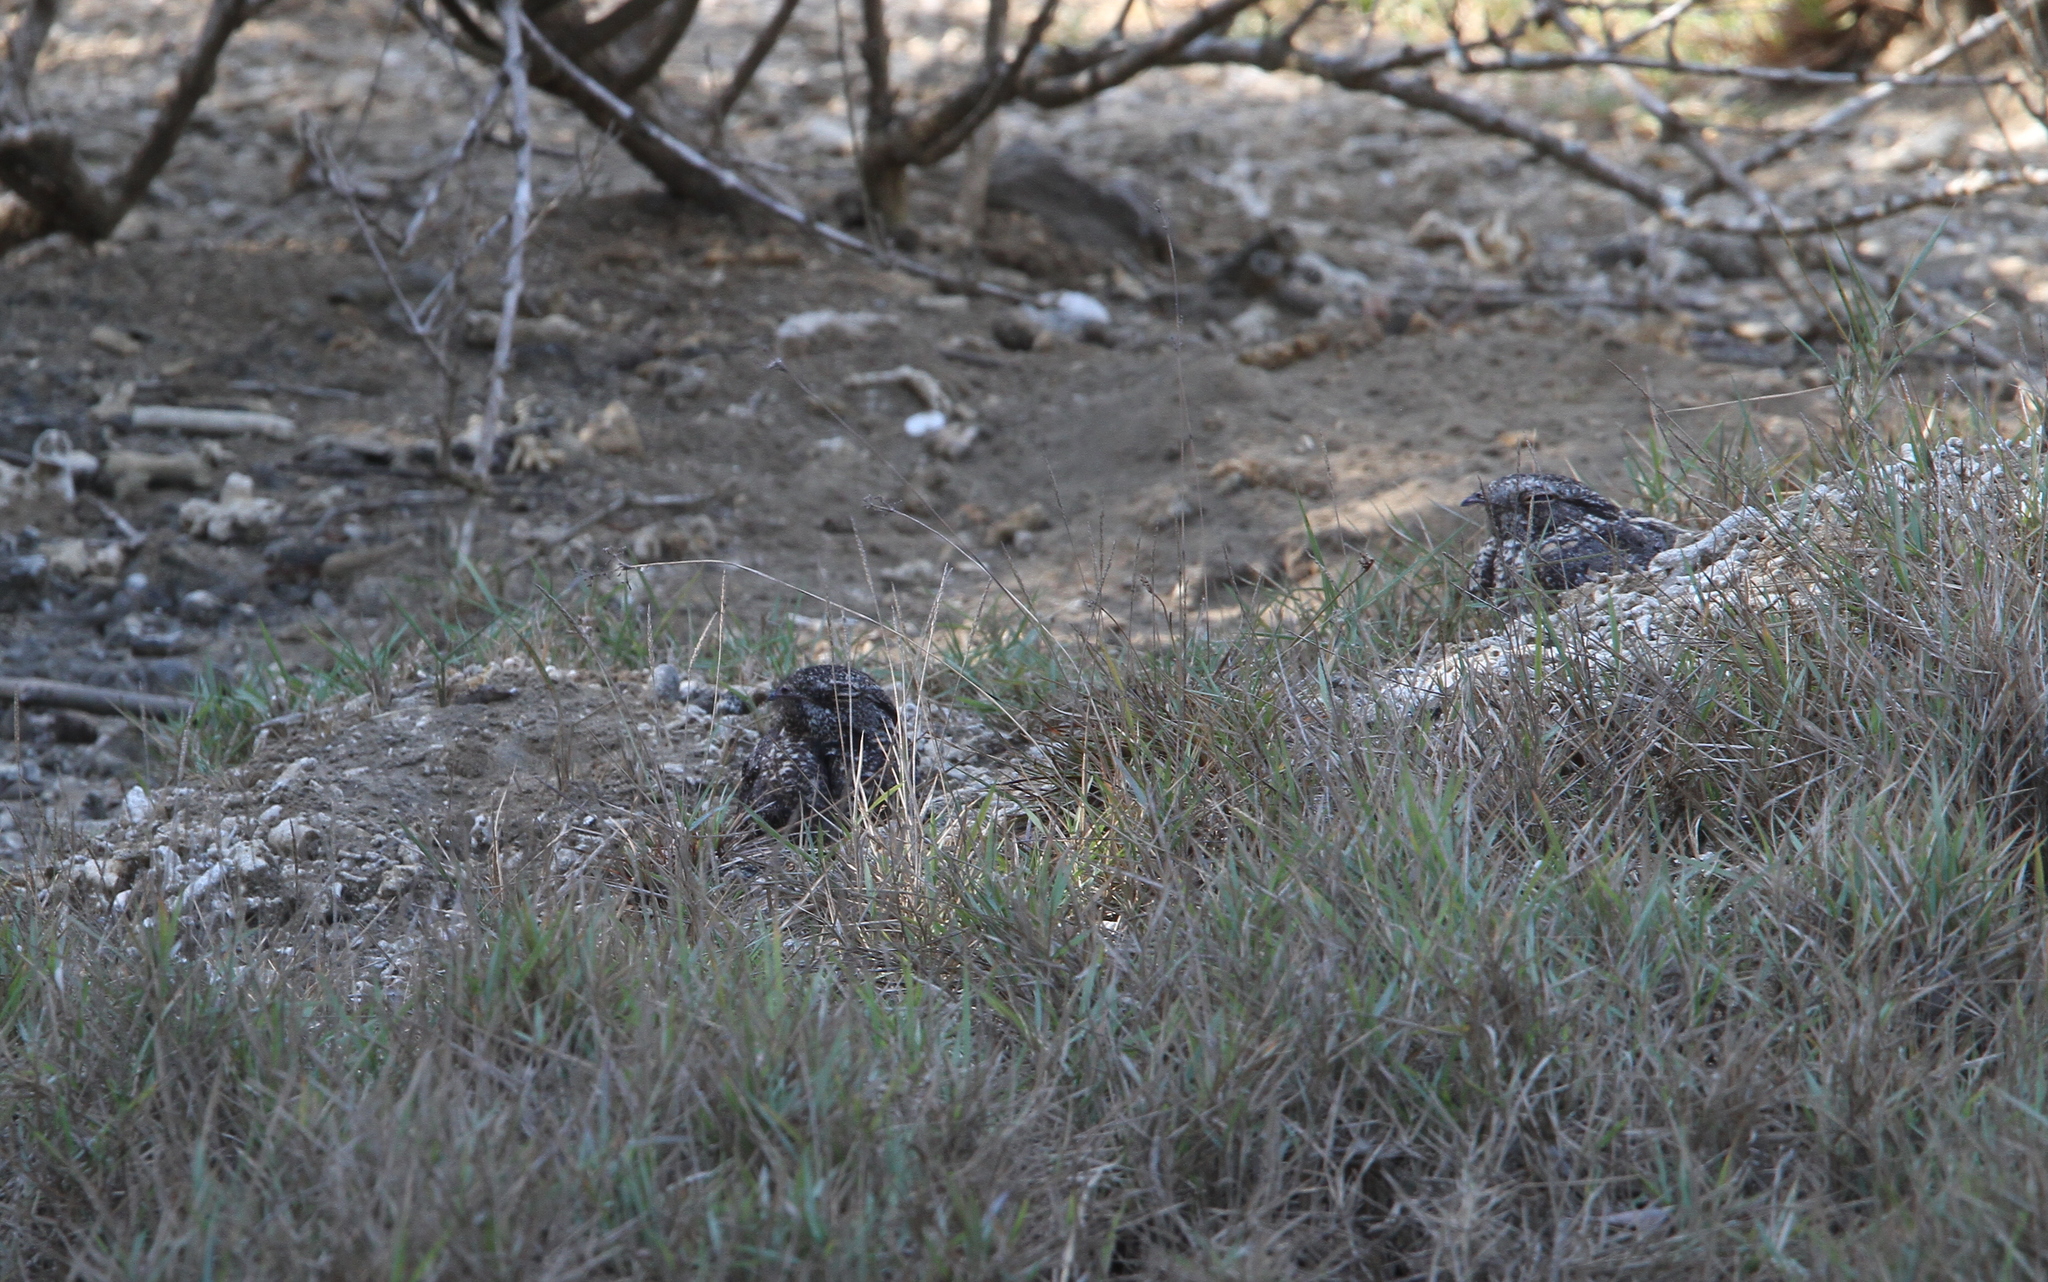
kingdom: Animalia
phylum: Chordata
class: Aves
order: Caprimulgiformes
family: Caprimulgidae
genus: Caprimulgus
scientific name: Caprimulgus affinis
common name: Savanna nightjar
